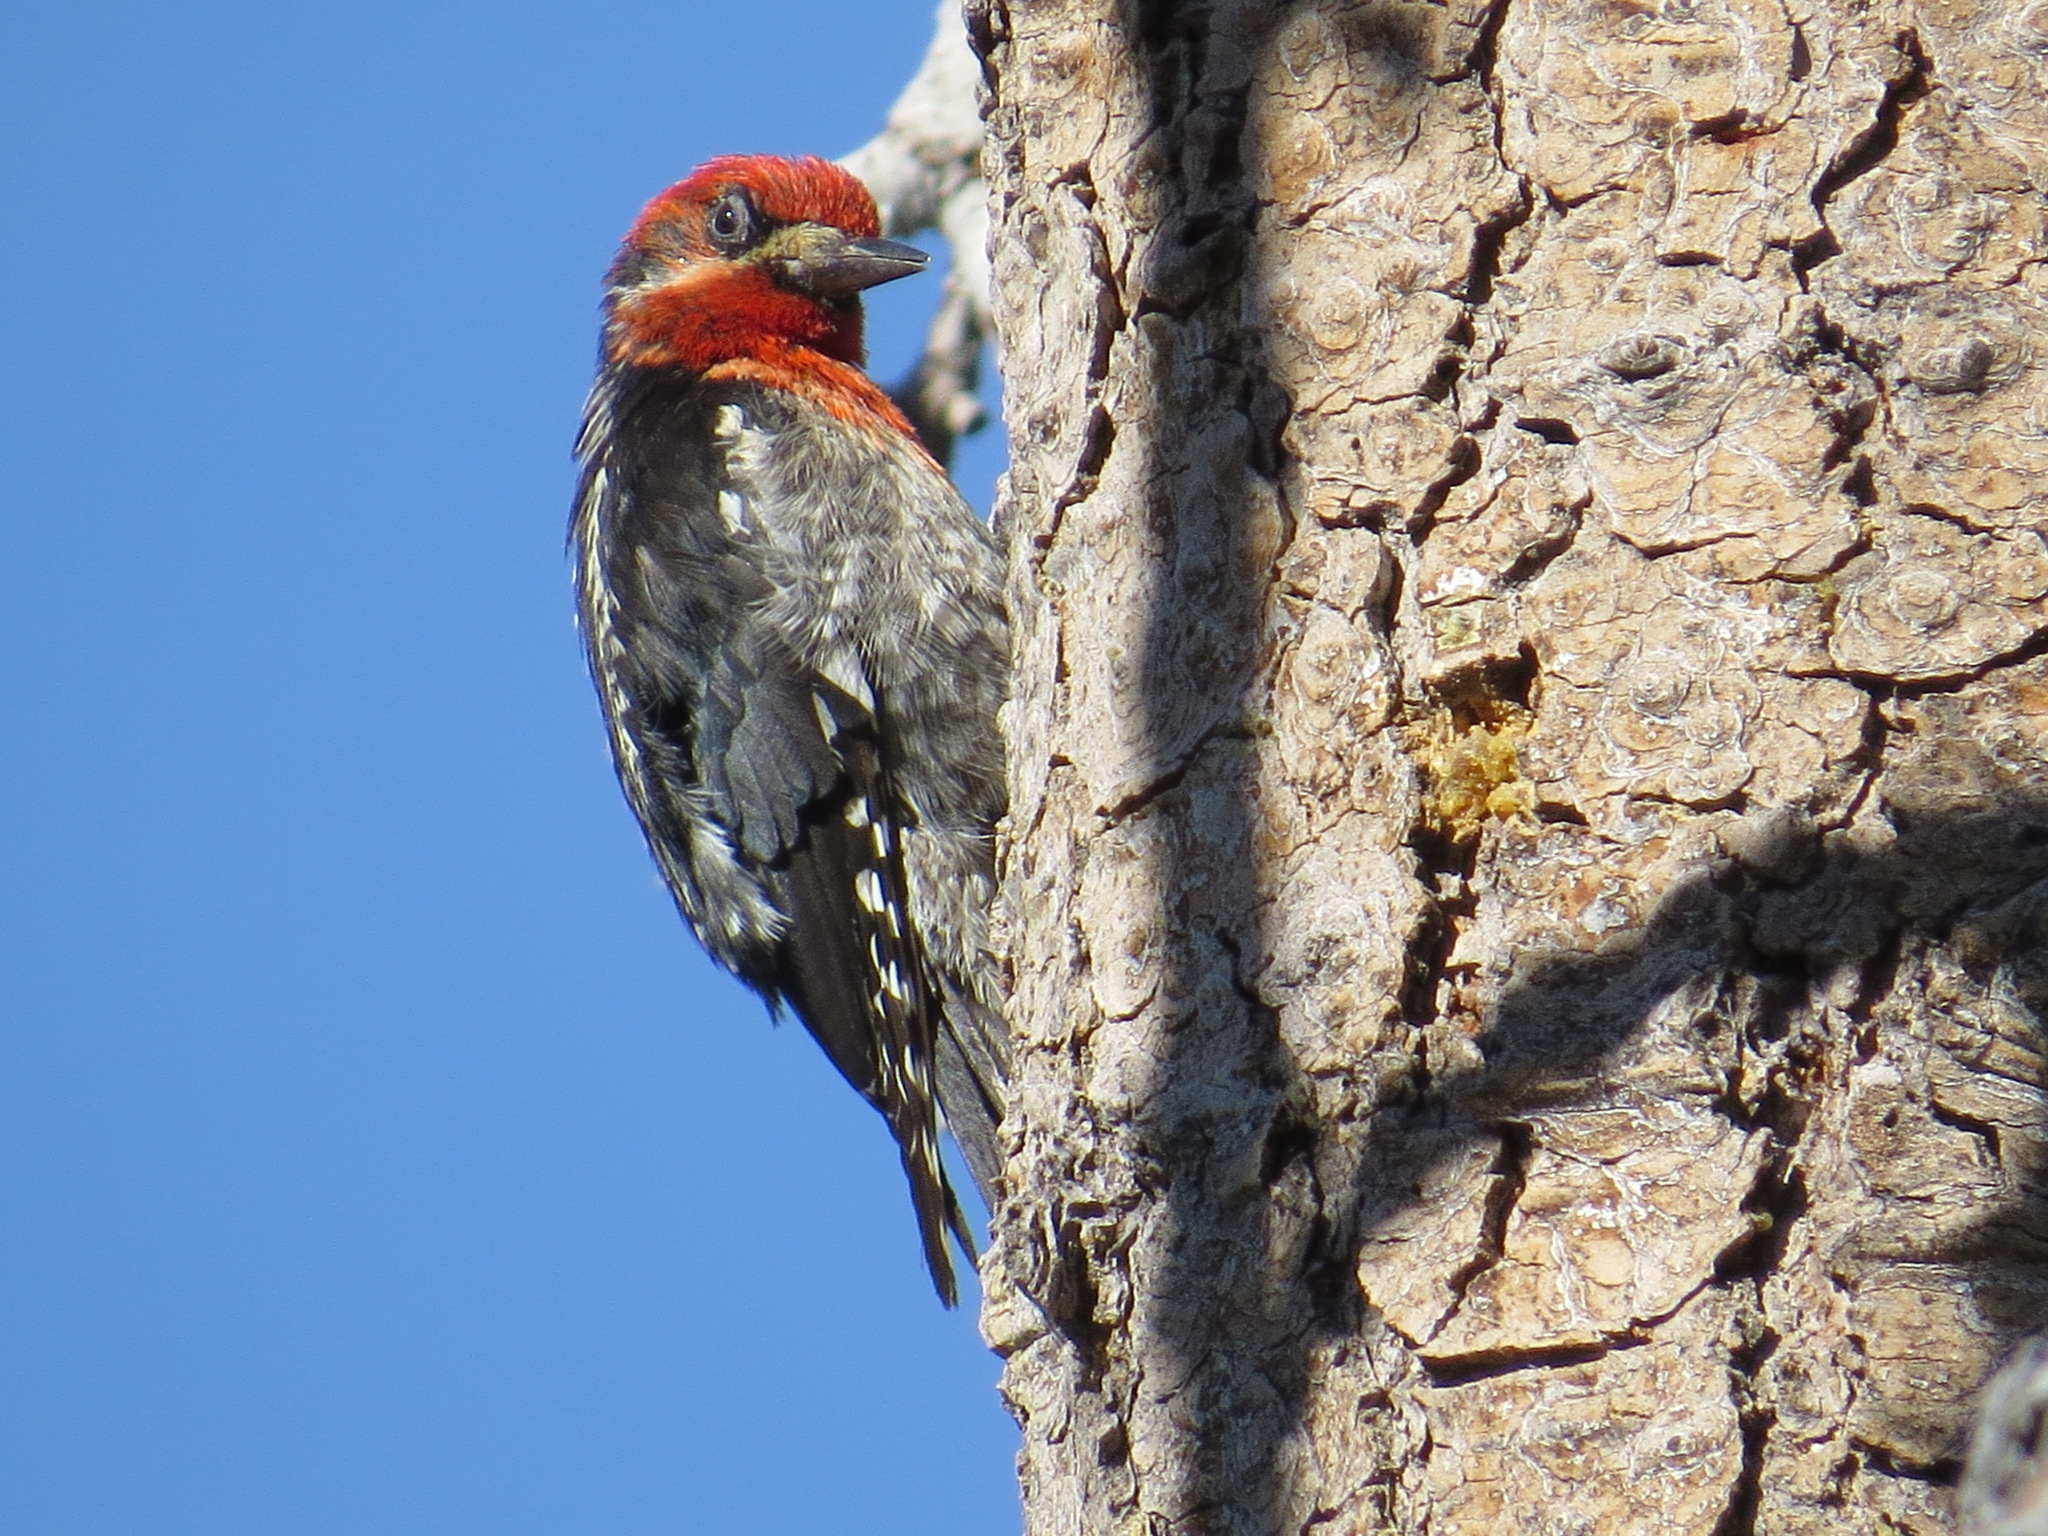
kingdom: Animalia
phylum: Chordata
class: Aves
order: Piciformes
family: Picidae
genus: Sphyrapicus
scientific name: Sphyrapicus ruber
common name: Red-breasted sapsucker
